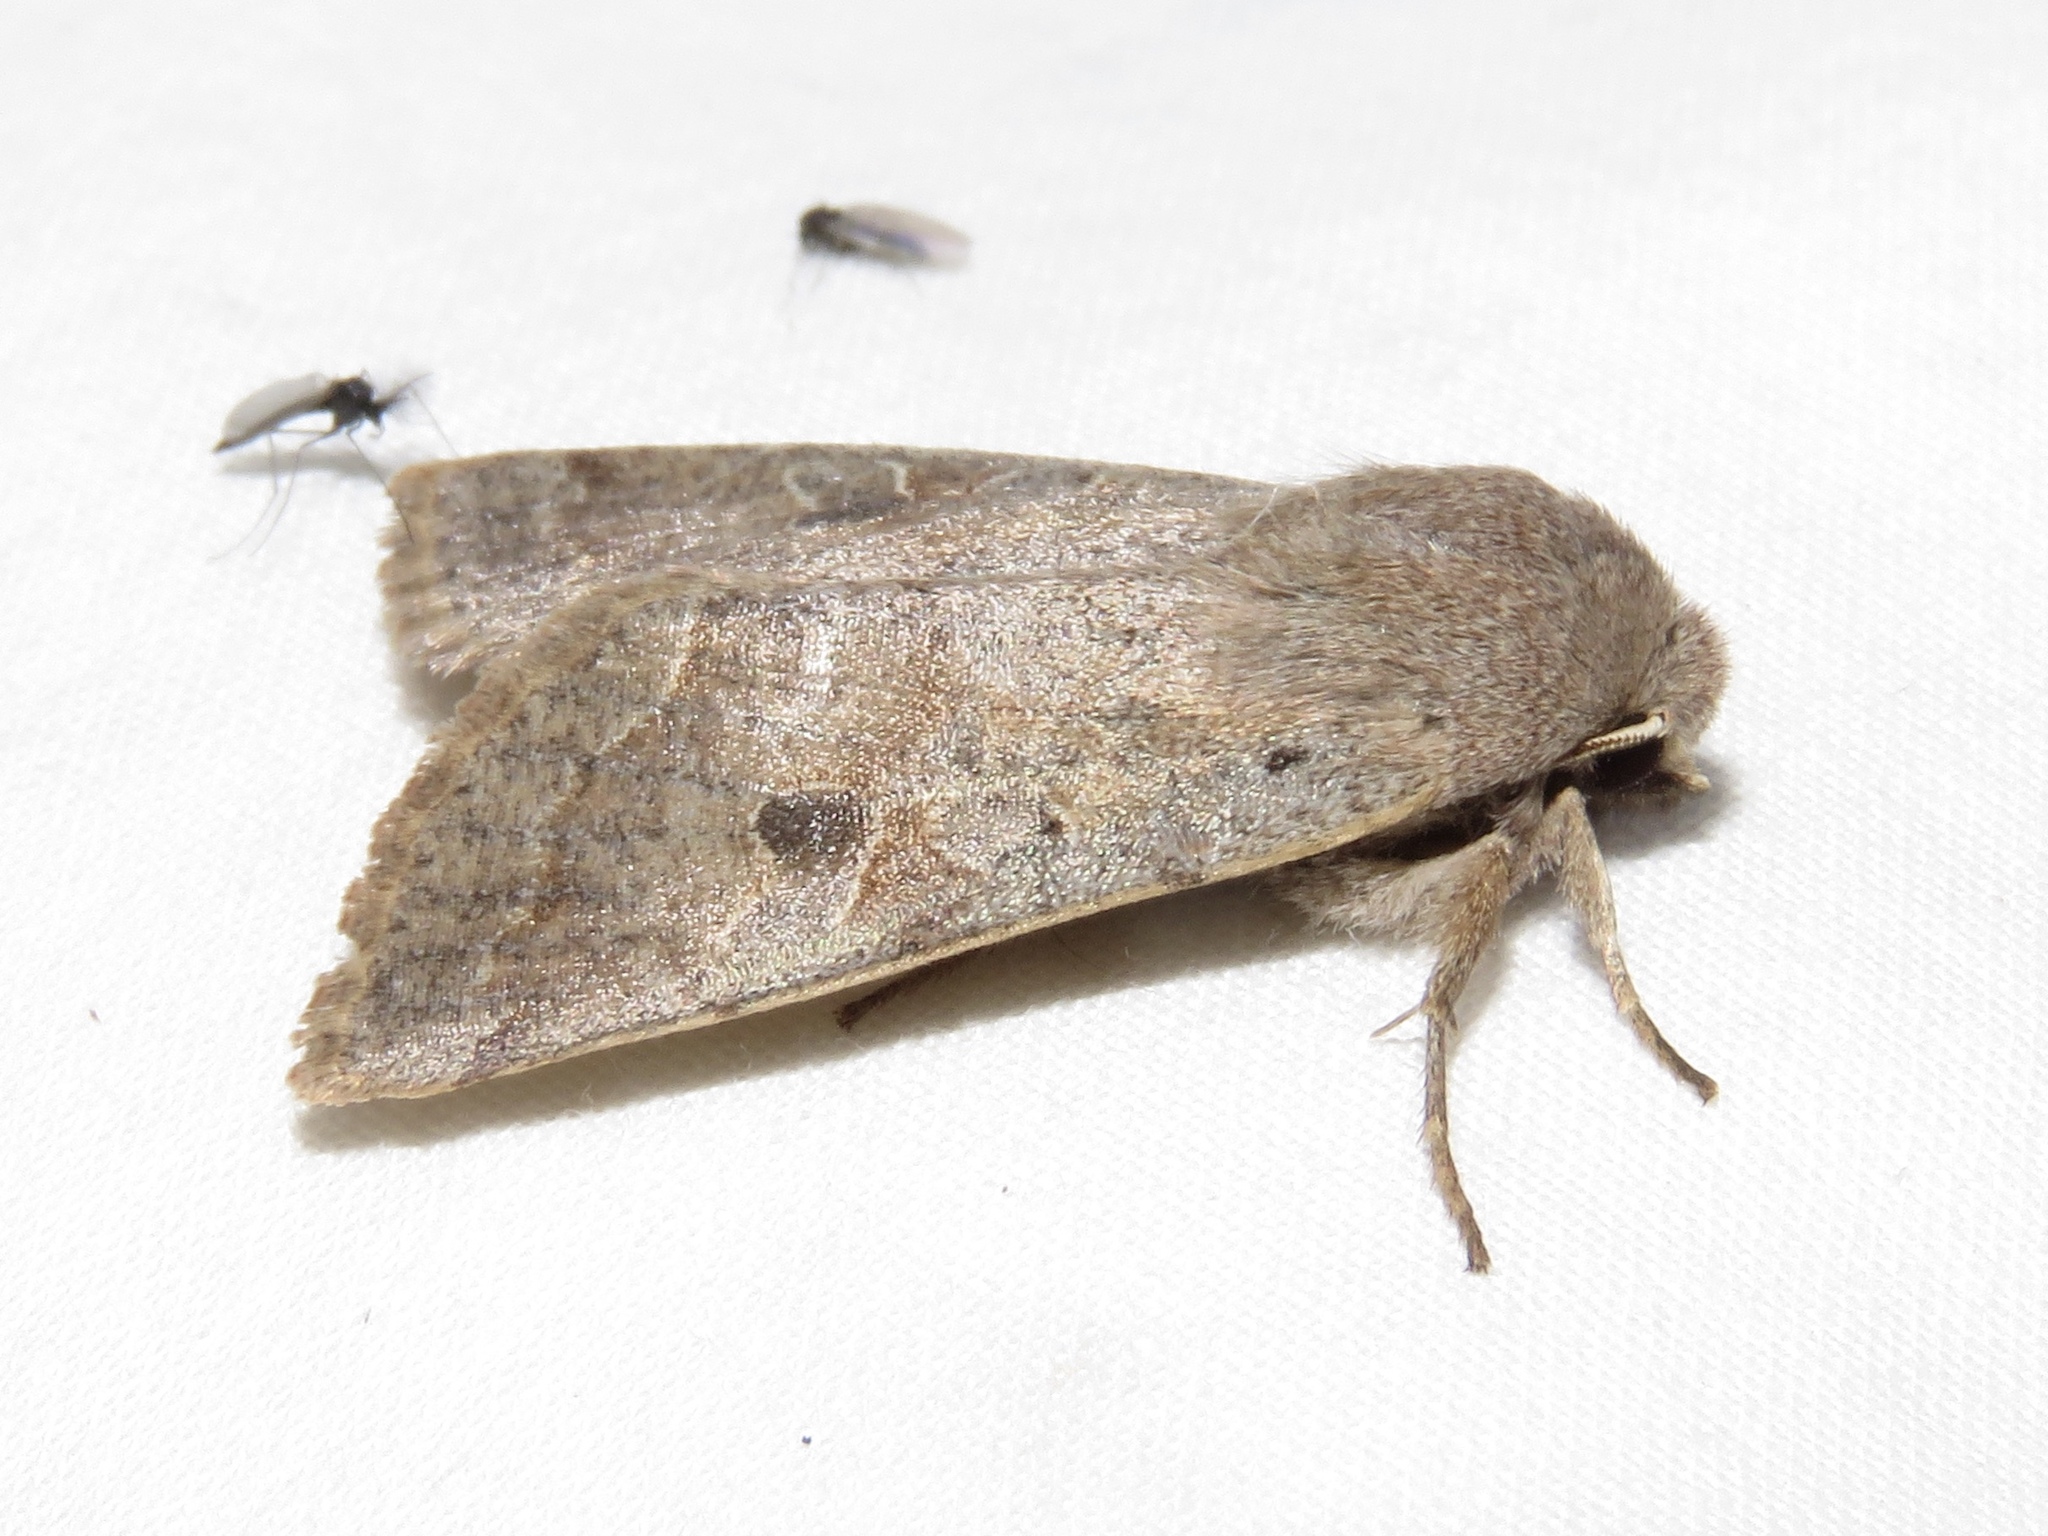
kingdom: Animalia
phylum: Arthropoda
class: Insecta
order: Lepidoptera
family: Noctuidae
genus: Orthosia
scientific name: Orthosia hibisci
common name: Green fruitworm
